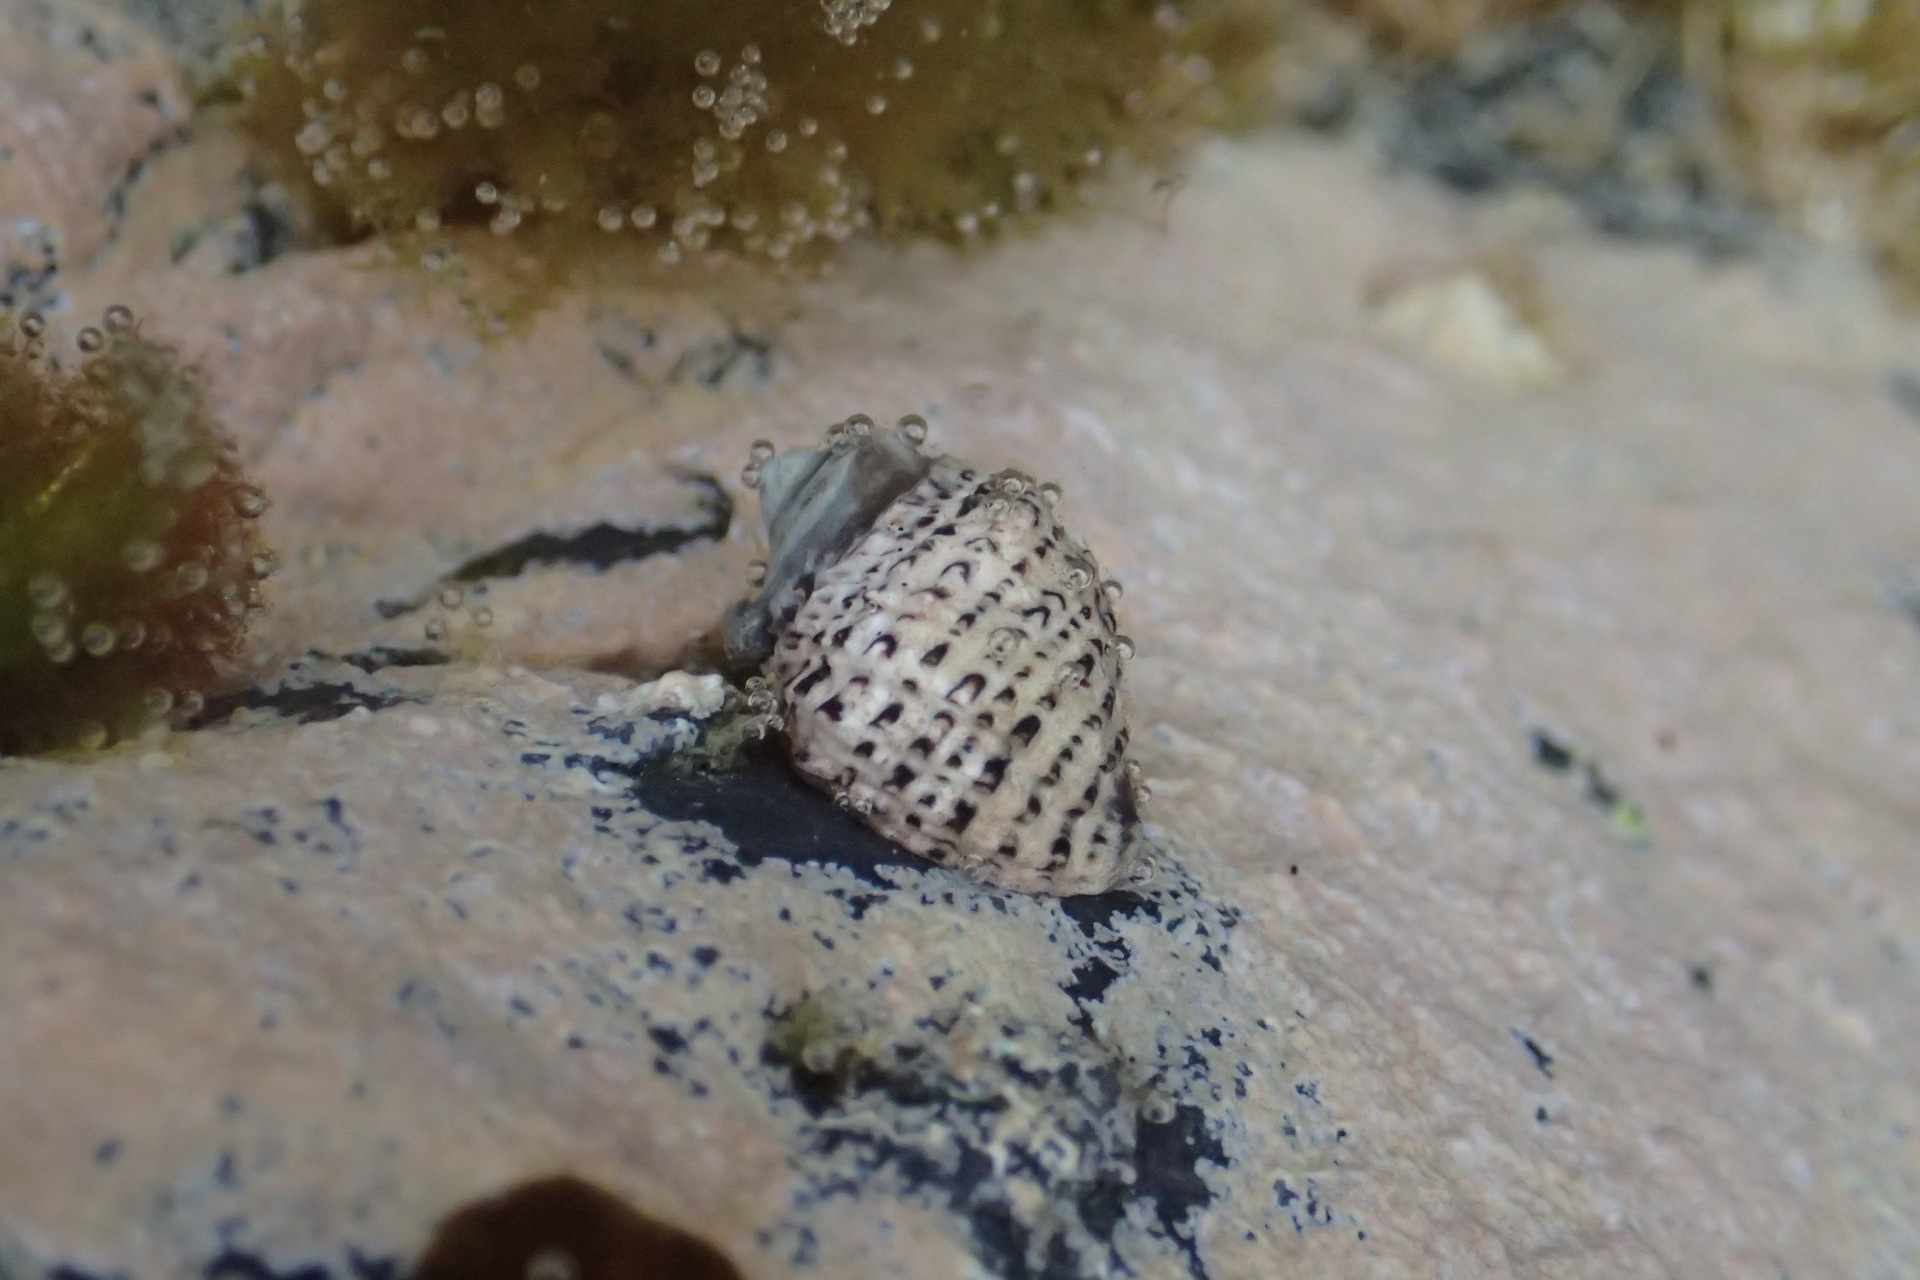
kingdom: Animalia
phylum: Mollusca
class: Gastropoda
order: Neogastropoda
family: Muricidae
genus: Haustrum
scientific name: Haustrum scobina
